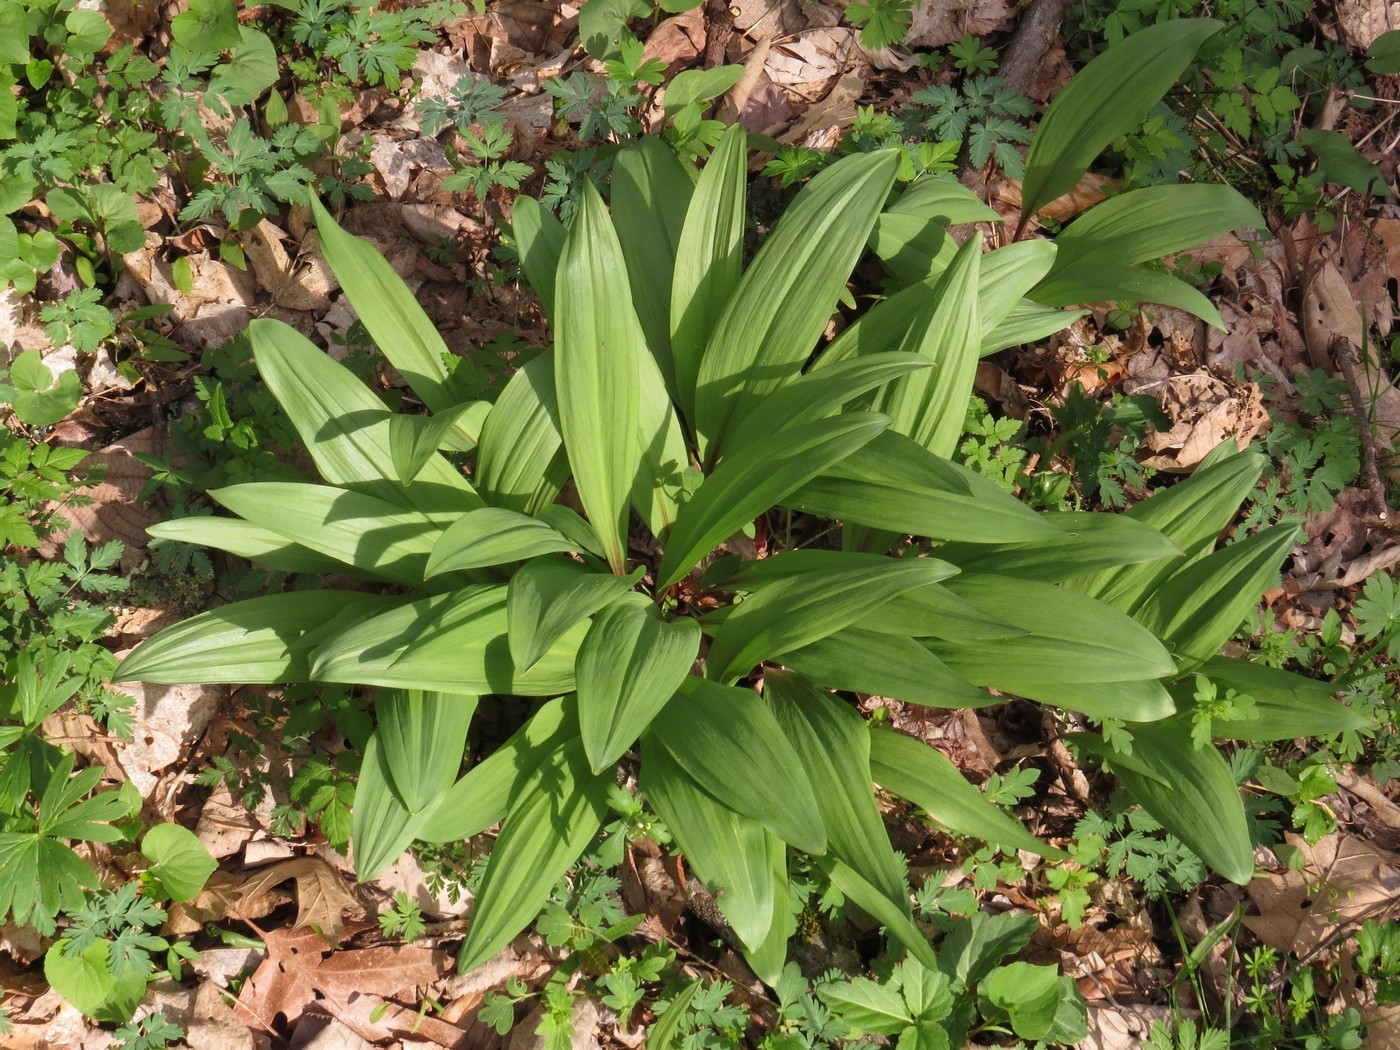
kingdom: Plantae
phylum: Tracheophyta
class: Liliopsida
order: Asparagales
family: Amaryllidaceae
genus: Allium
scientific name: Allium tricoccum
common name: Ramp
